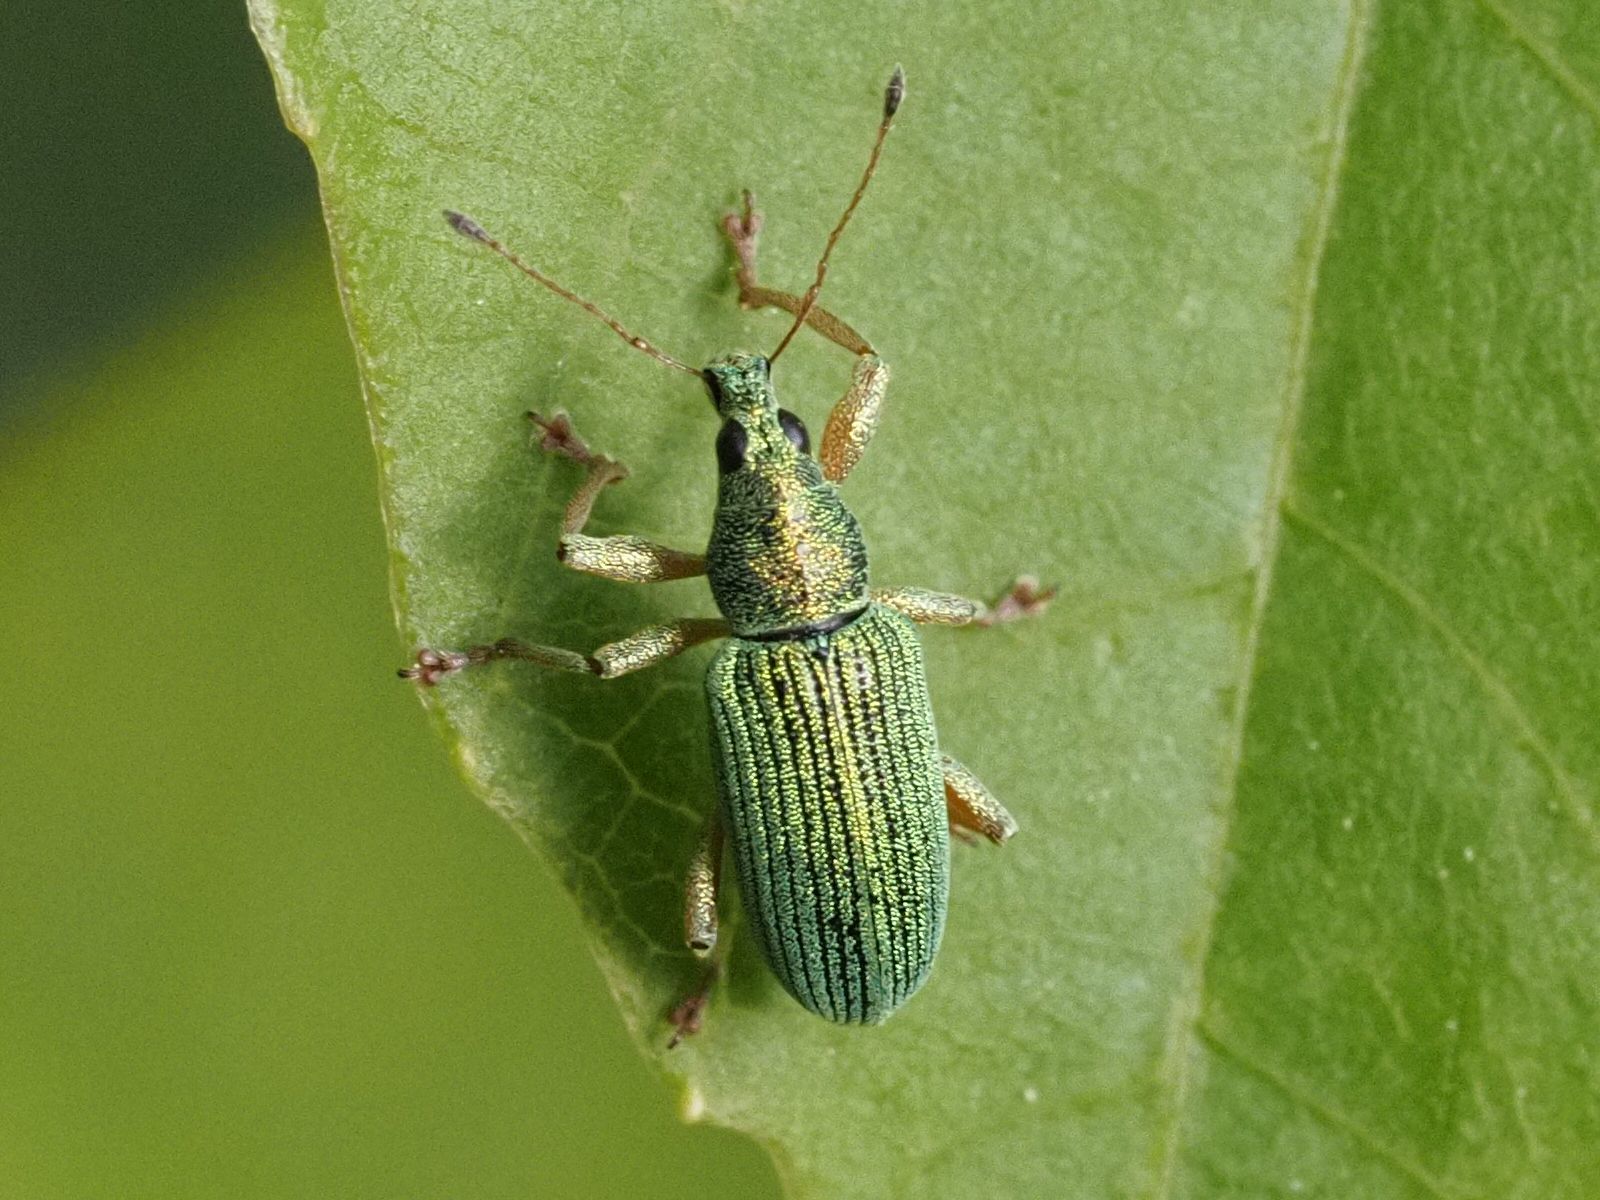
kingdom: Animalia
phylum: Arthropoda
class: Insecta
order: Coleoptera
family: Curculionidae
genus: Polydrusus
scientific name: Polydrusus formosus
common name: Weevil
